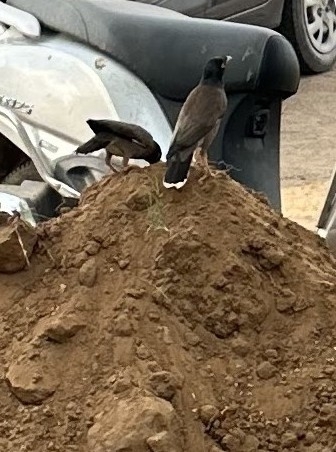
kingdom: Animalia
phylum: Chordata
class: Aves
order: Passeriformes
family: Sturnidae
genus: Acridotheres
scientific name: Acridotheres tristis
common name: Common myna
